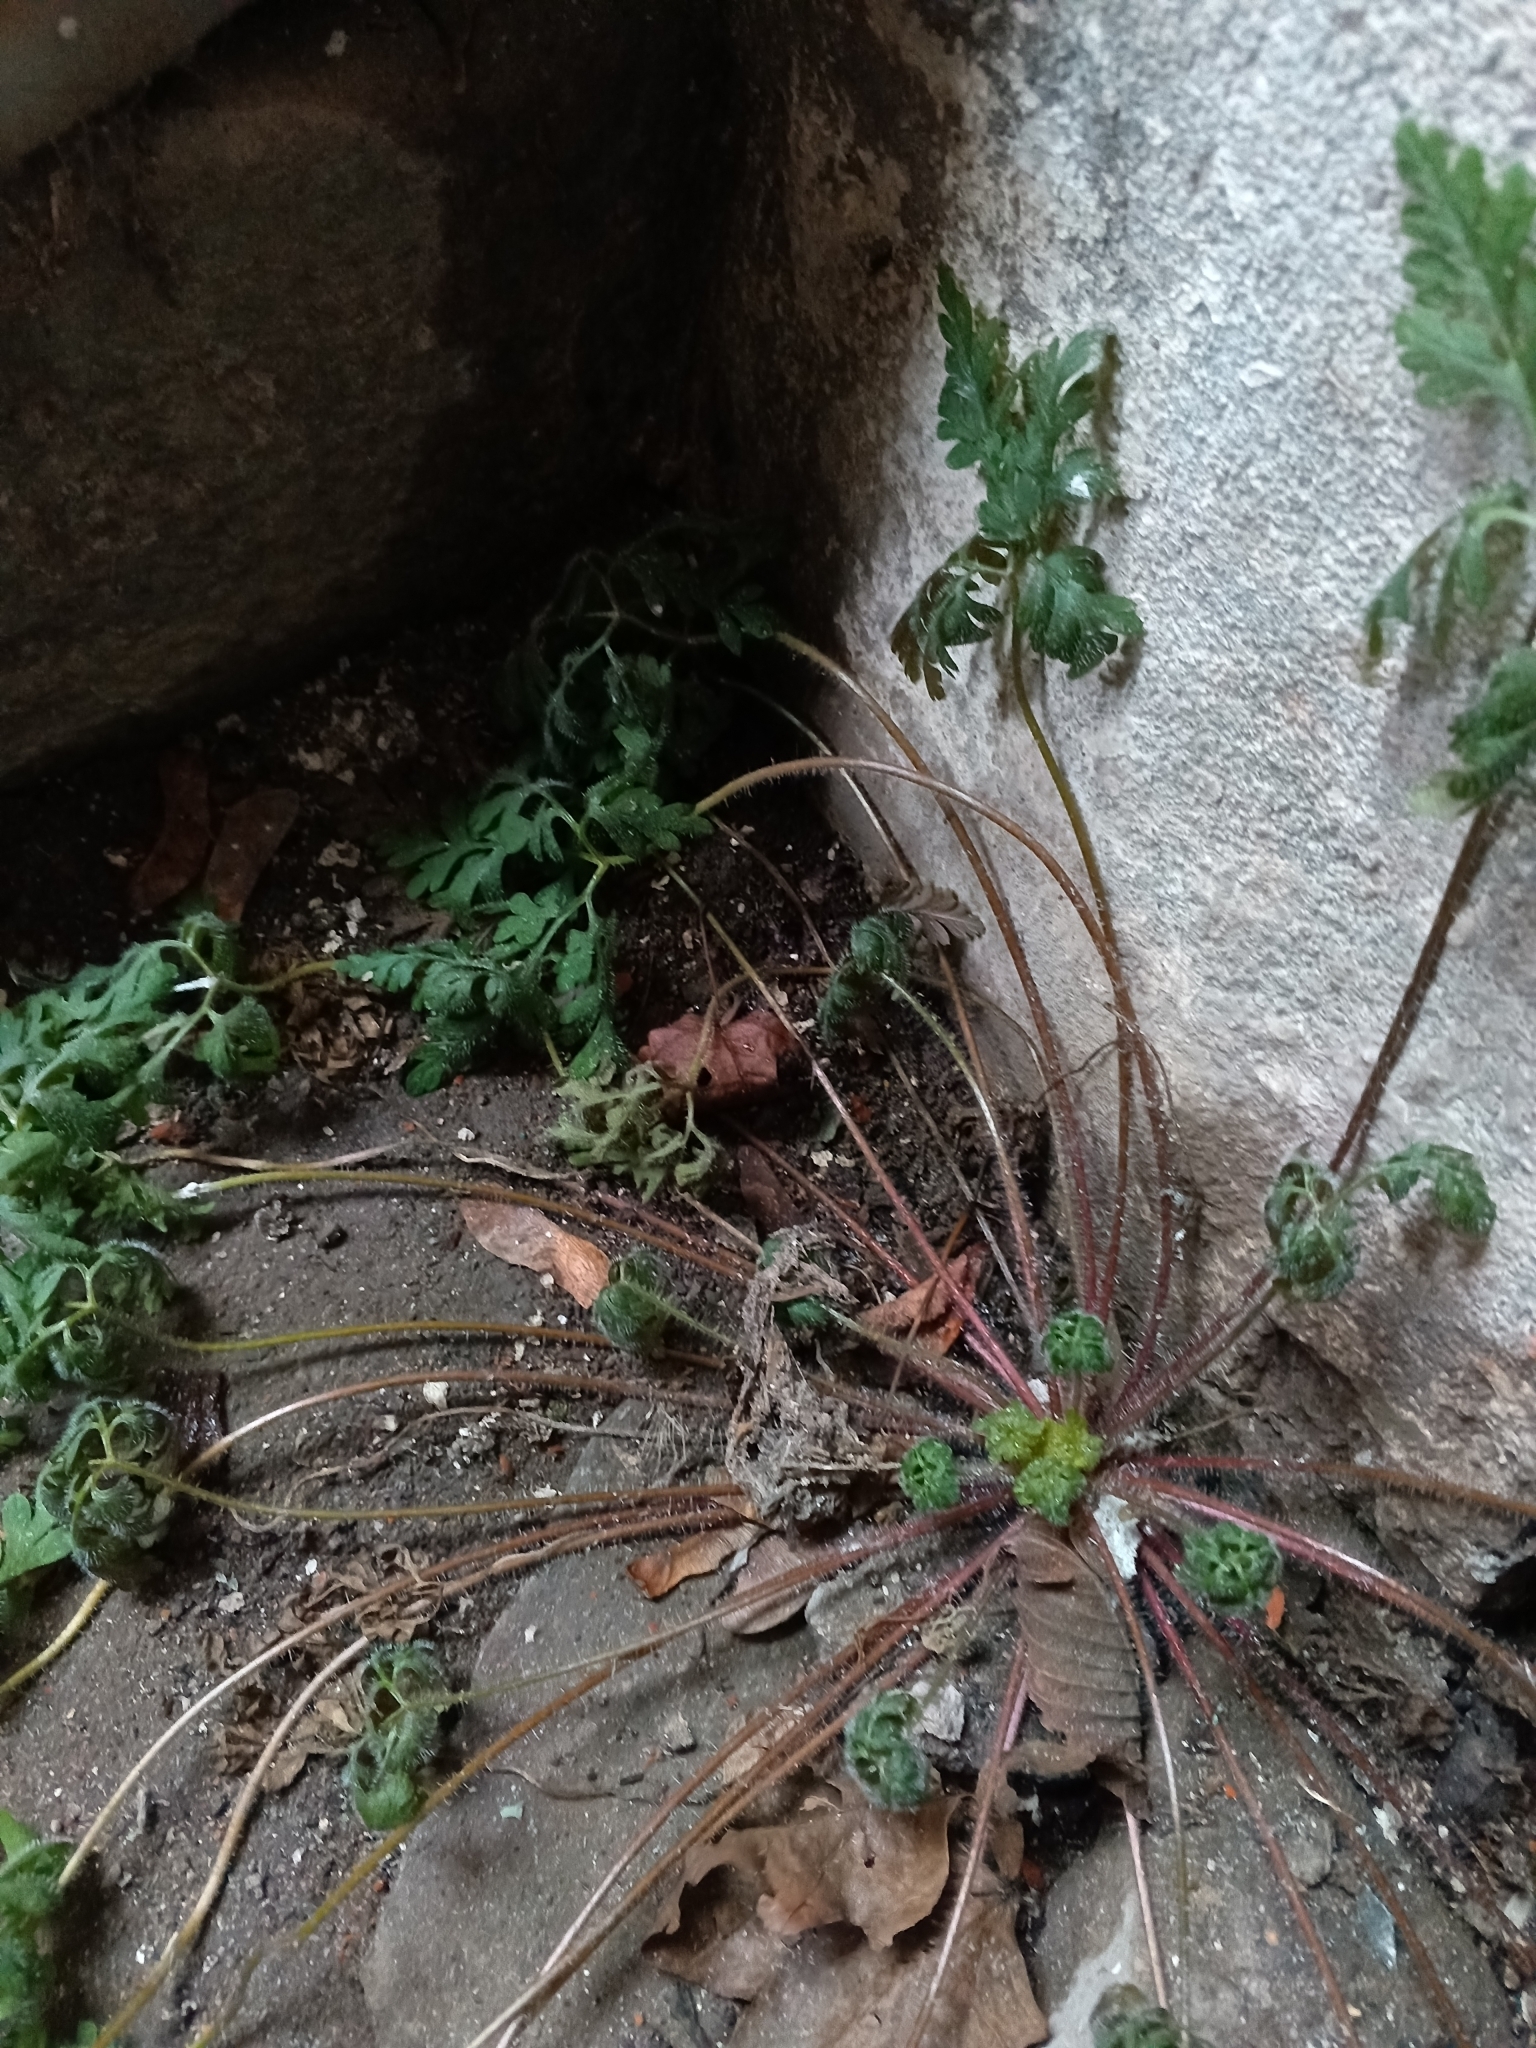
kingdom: Plantae
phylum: Tracheophyta
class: Magnoliopsida
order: Geraniales
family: Geraniaceae
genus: Geranium
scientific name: Geranium robertianum
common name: Herb-robert
